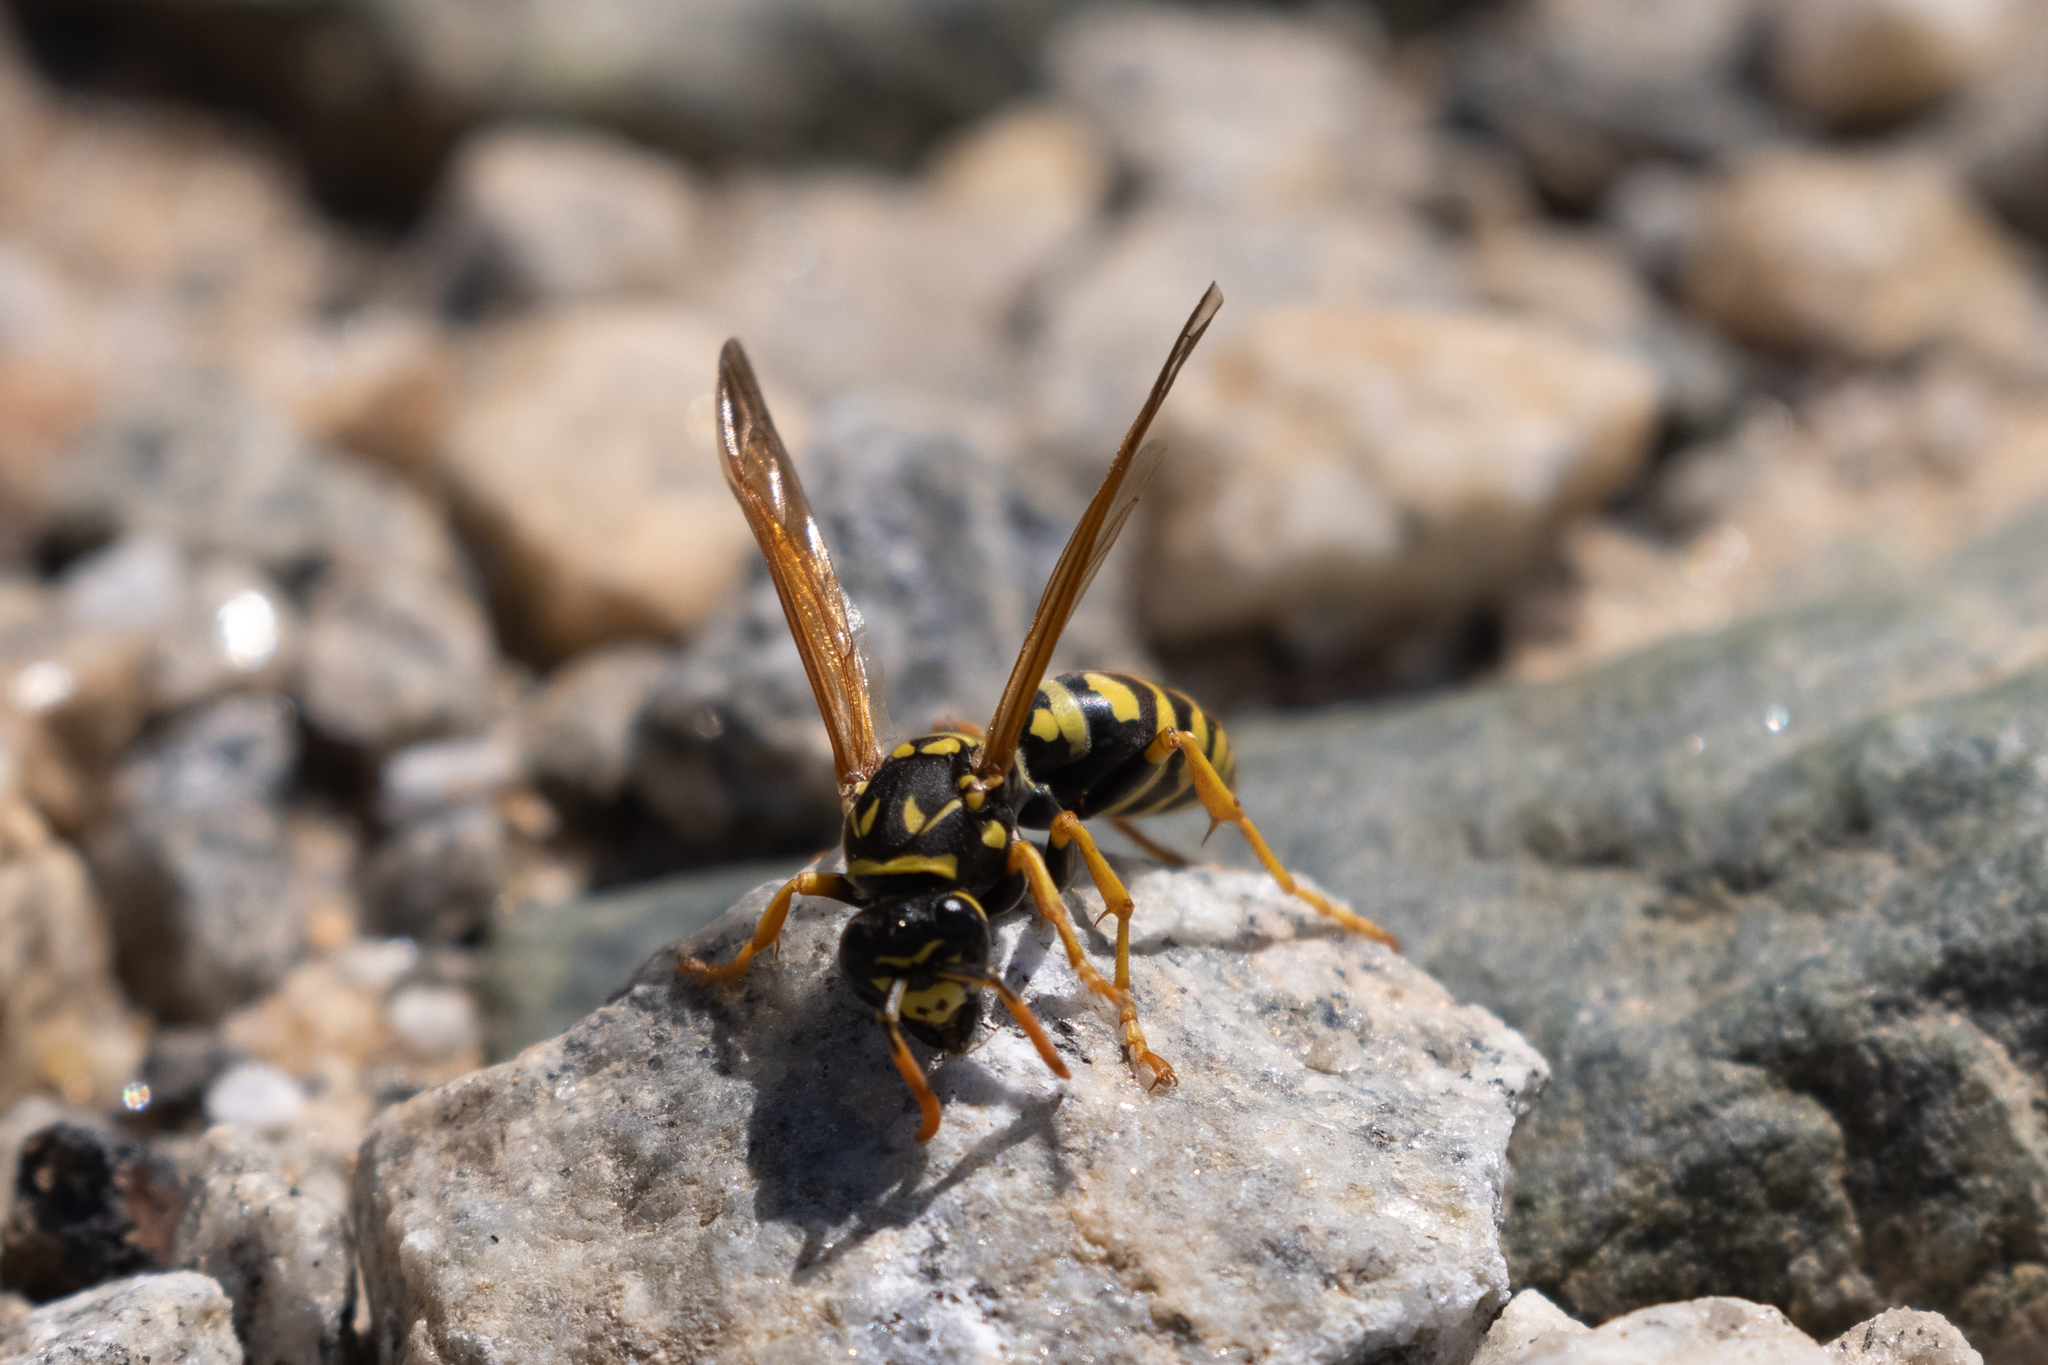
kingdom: Animalia
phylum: Arthropoda
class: Insecta
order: Hymenoptera
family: Eumenidae
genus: Polistes
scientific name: Polistes dominula
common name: Paper wasp
